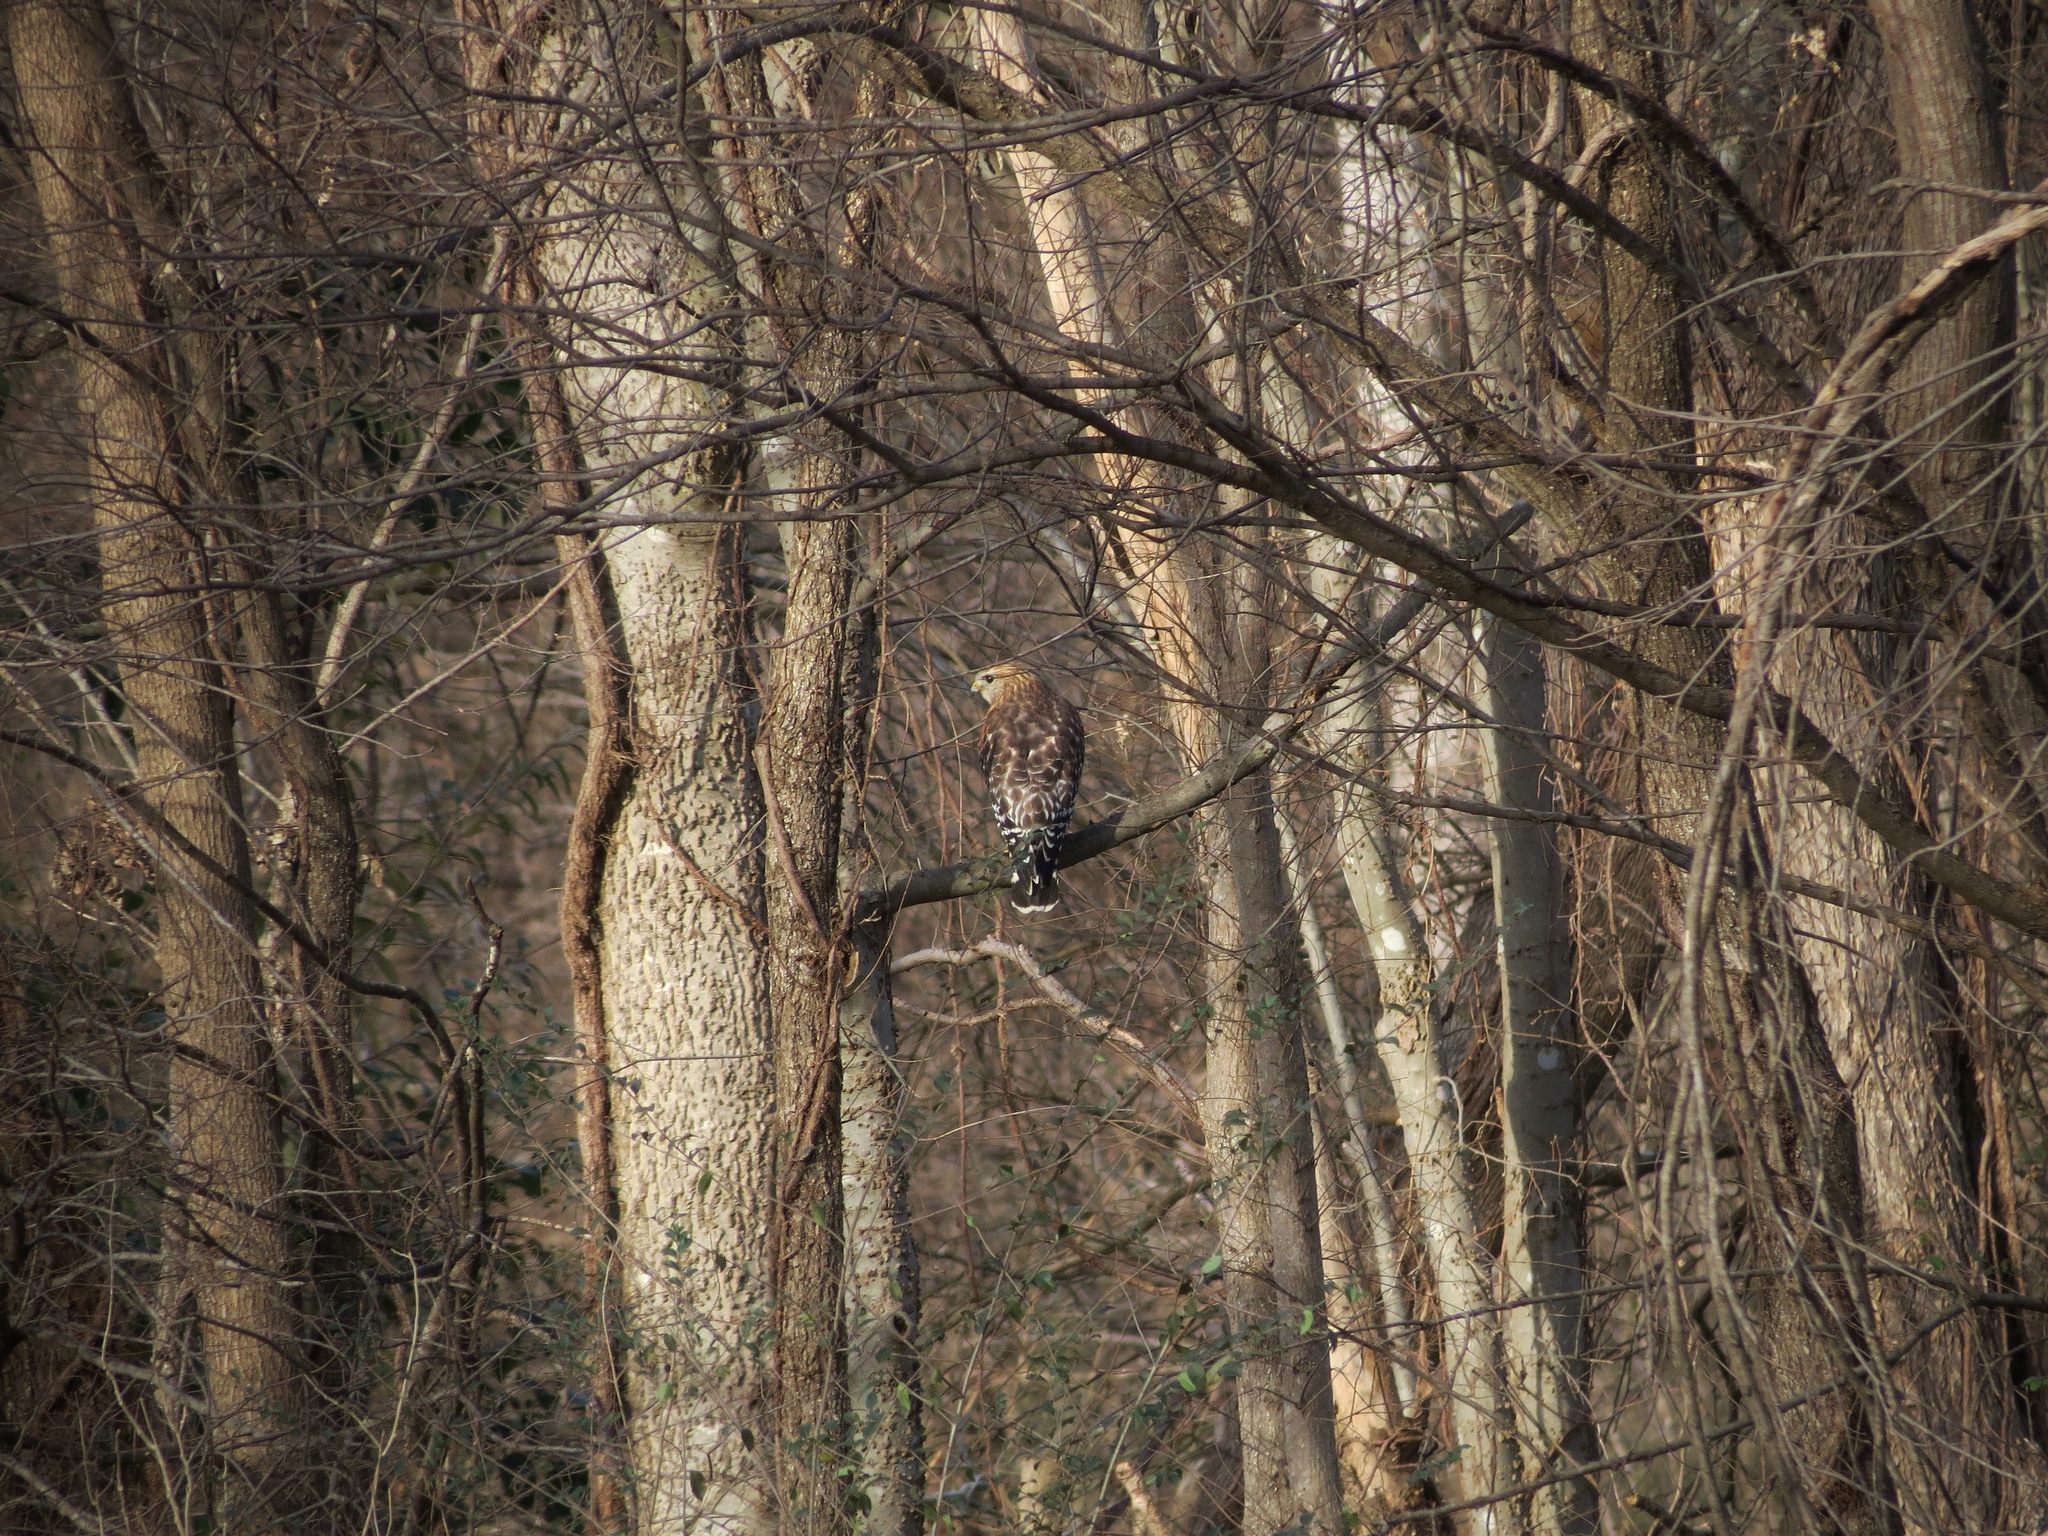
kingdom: Animalia
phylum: Chordata
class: Aves
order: Accipitriformes
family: Accipitridae
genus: Buteo
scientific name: Buteo lineatus
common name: Red-shouldered hawk
